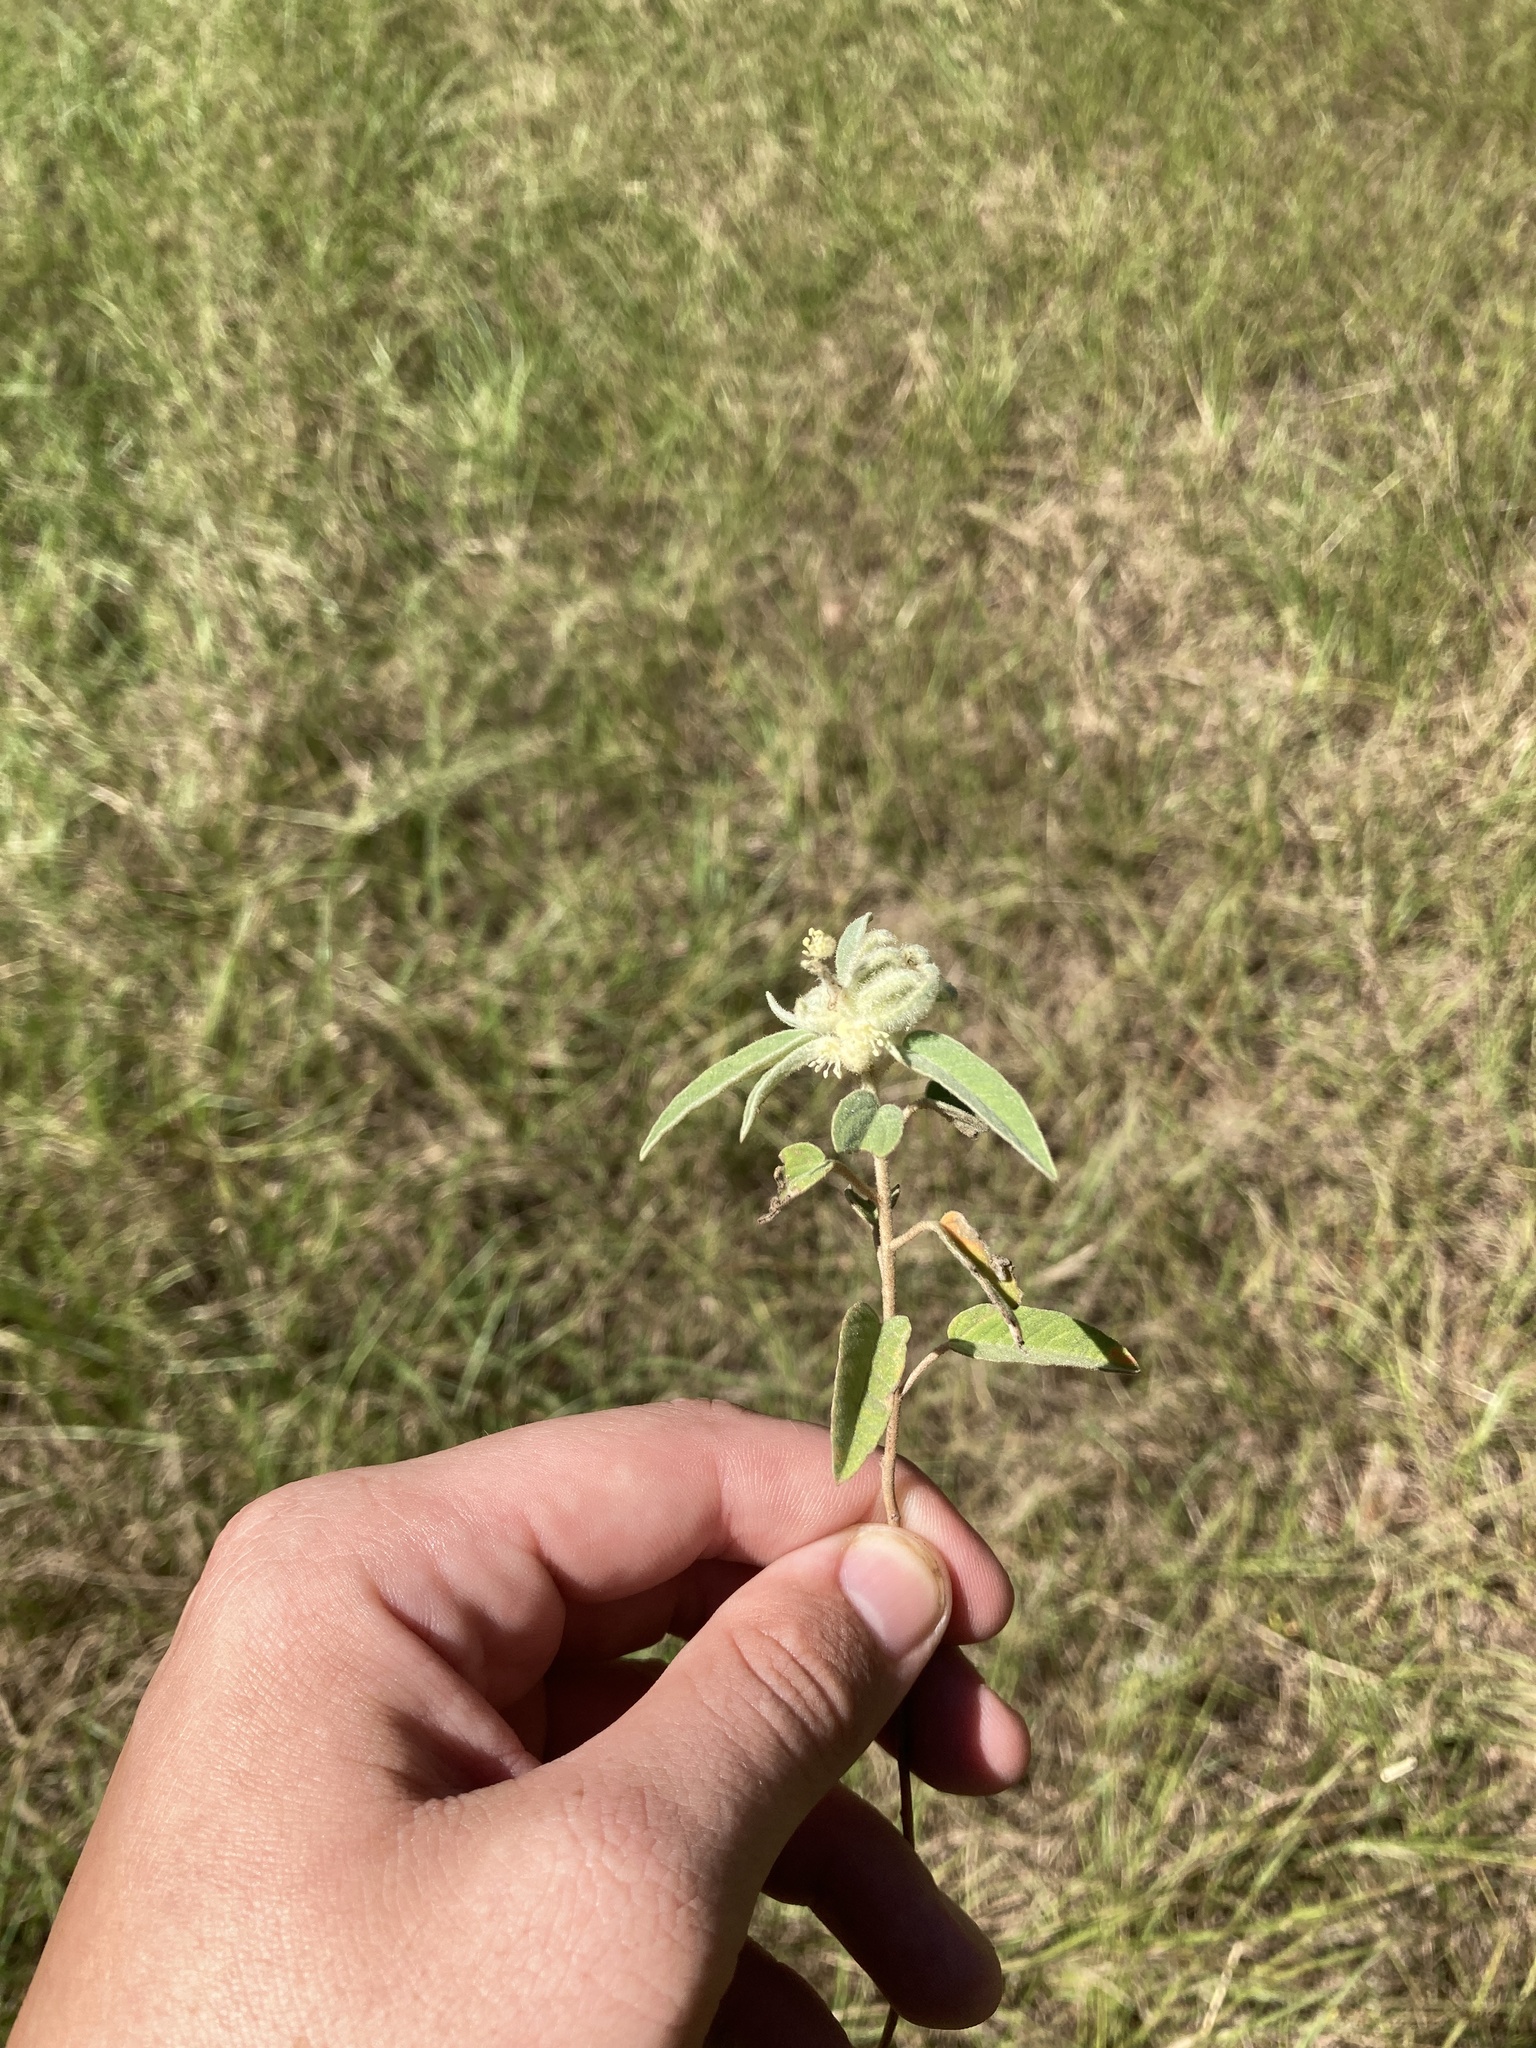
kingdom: Plantae
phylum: Tracheophyta
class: Magnoliopsida
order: Malpighiales
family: Euphorbiaceae
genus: Croton
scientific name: Croton lindheimeri
